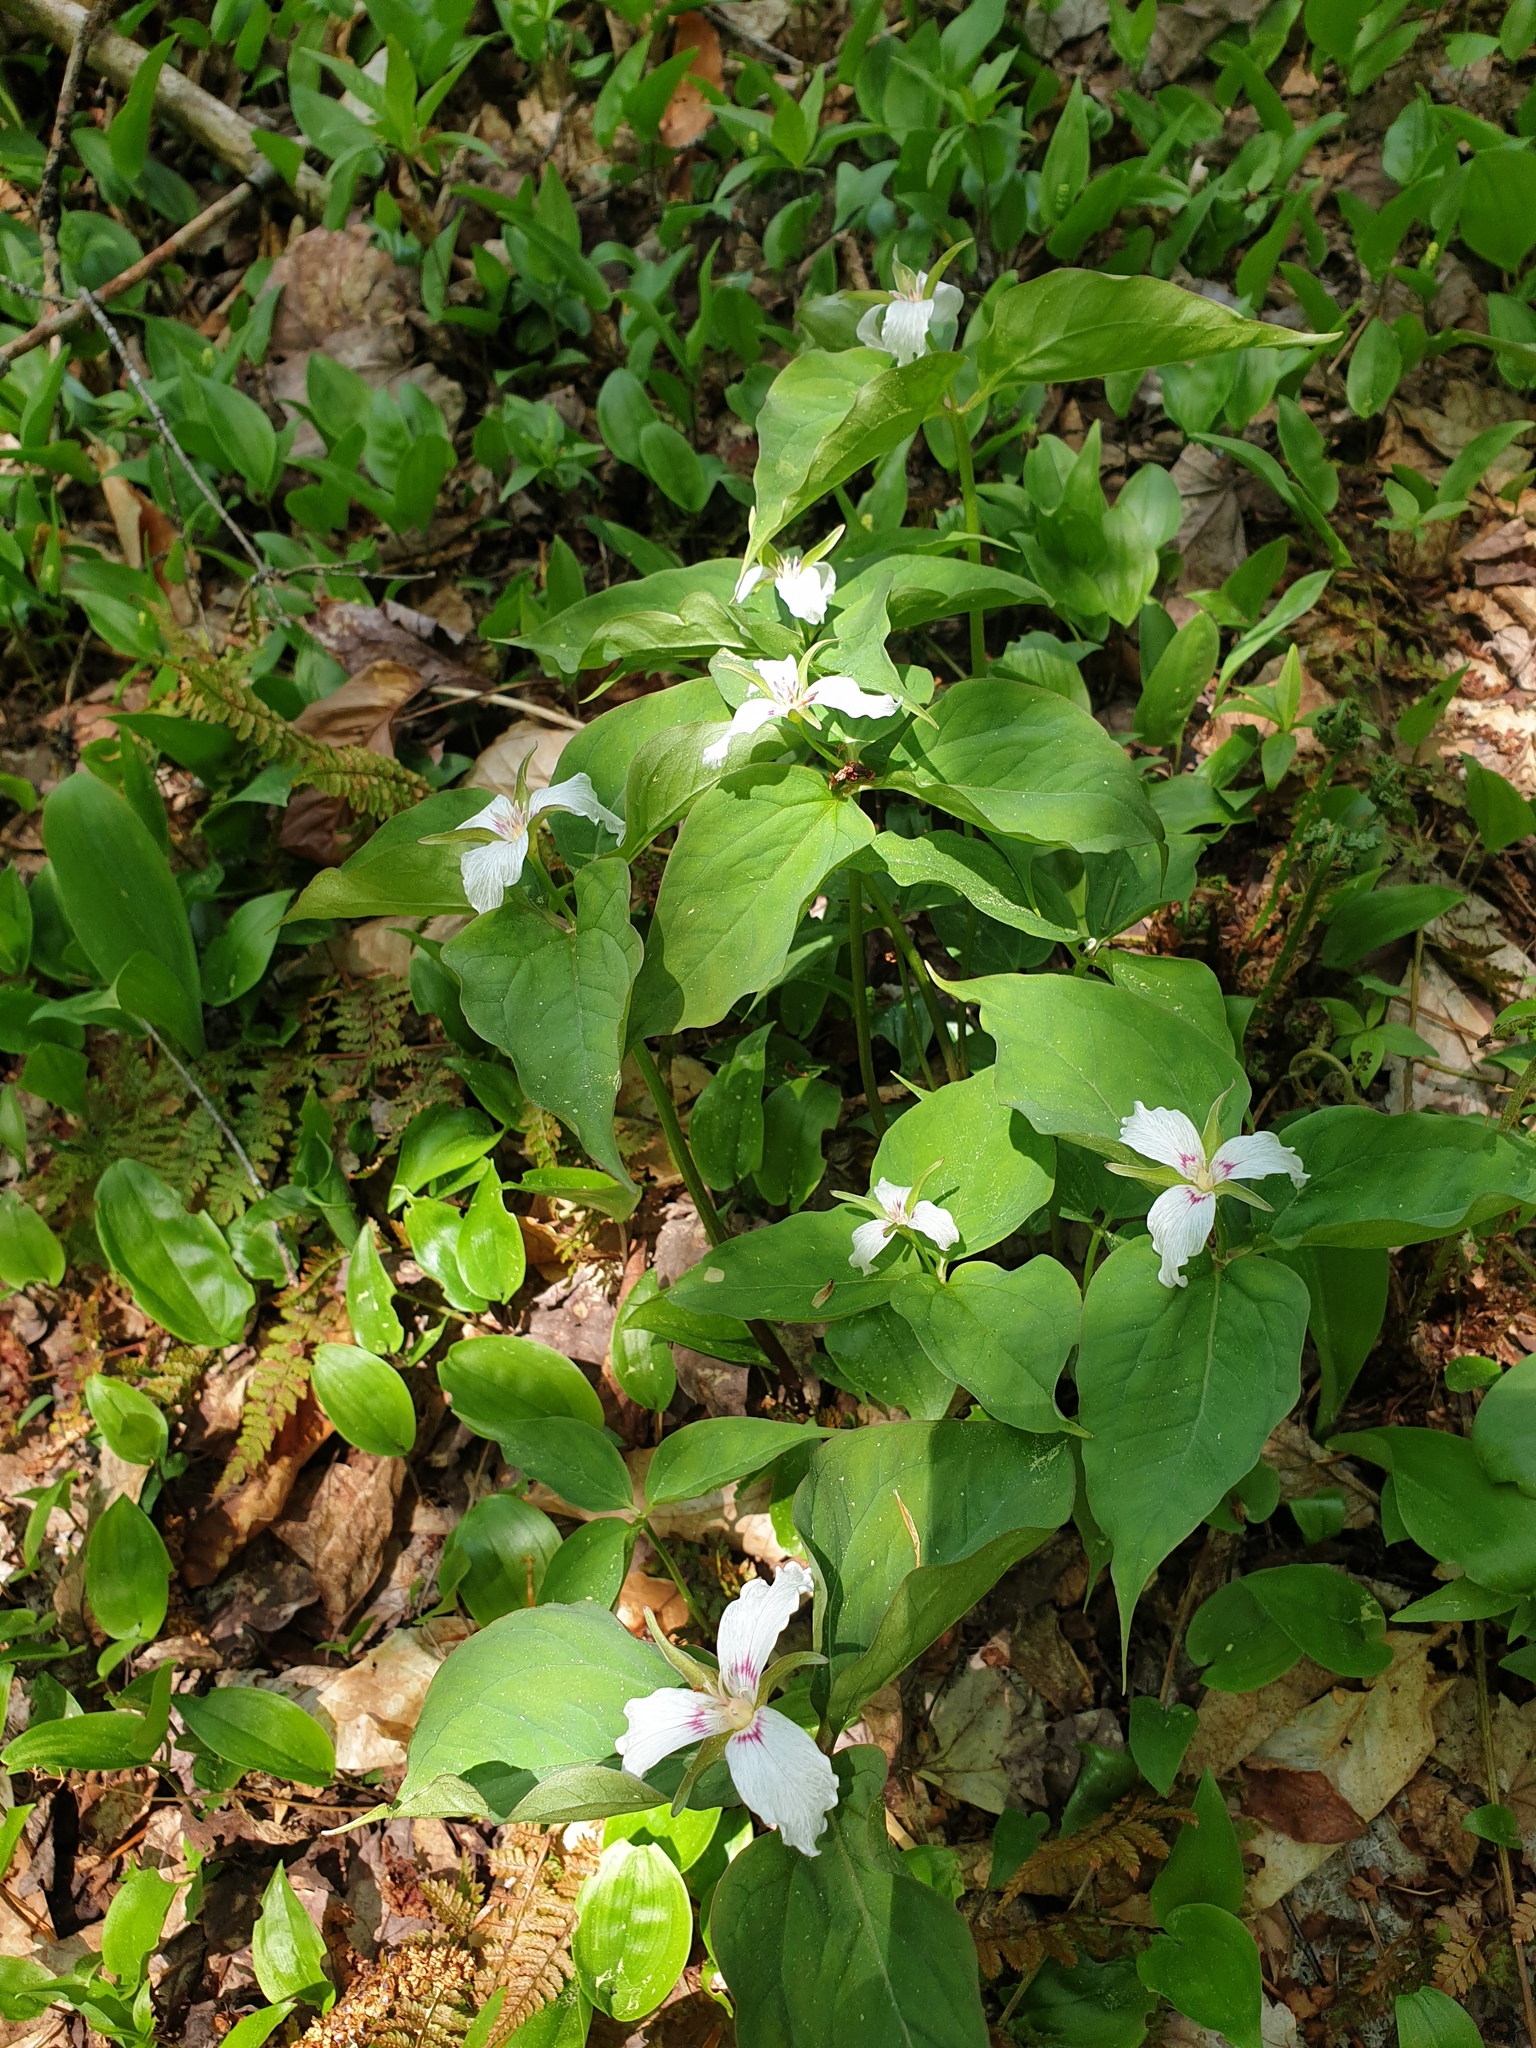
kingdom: Plantae
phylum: Tracheophyta
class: Liliopsida
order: Asparagales
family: Asparagaceae
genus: Maianthemum
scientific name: Maianthemum canadense
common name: False lily-of-the-valley
